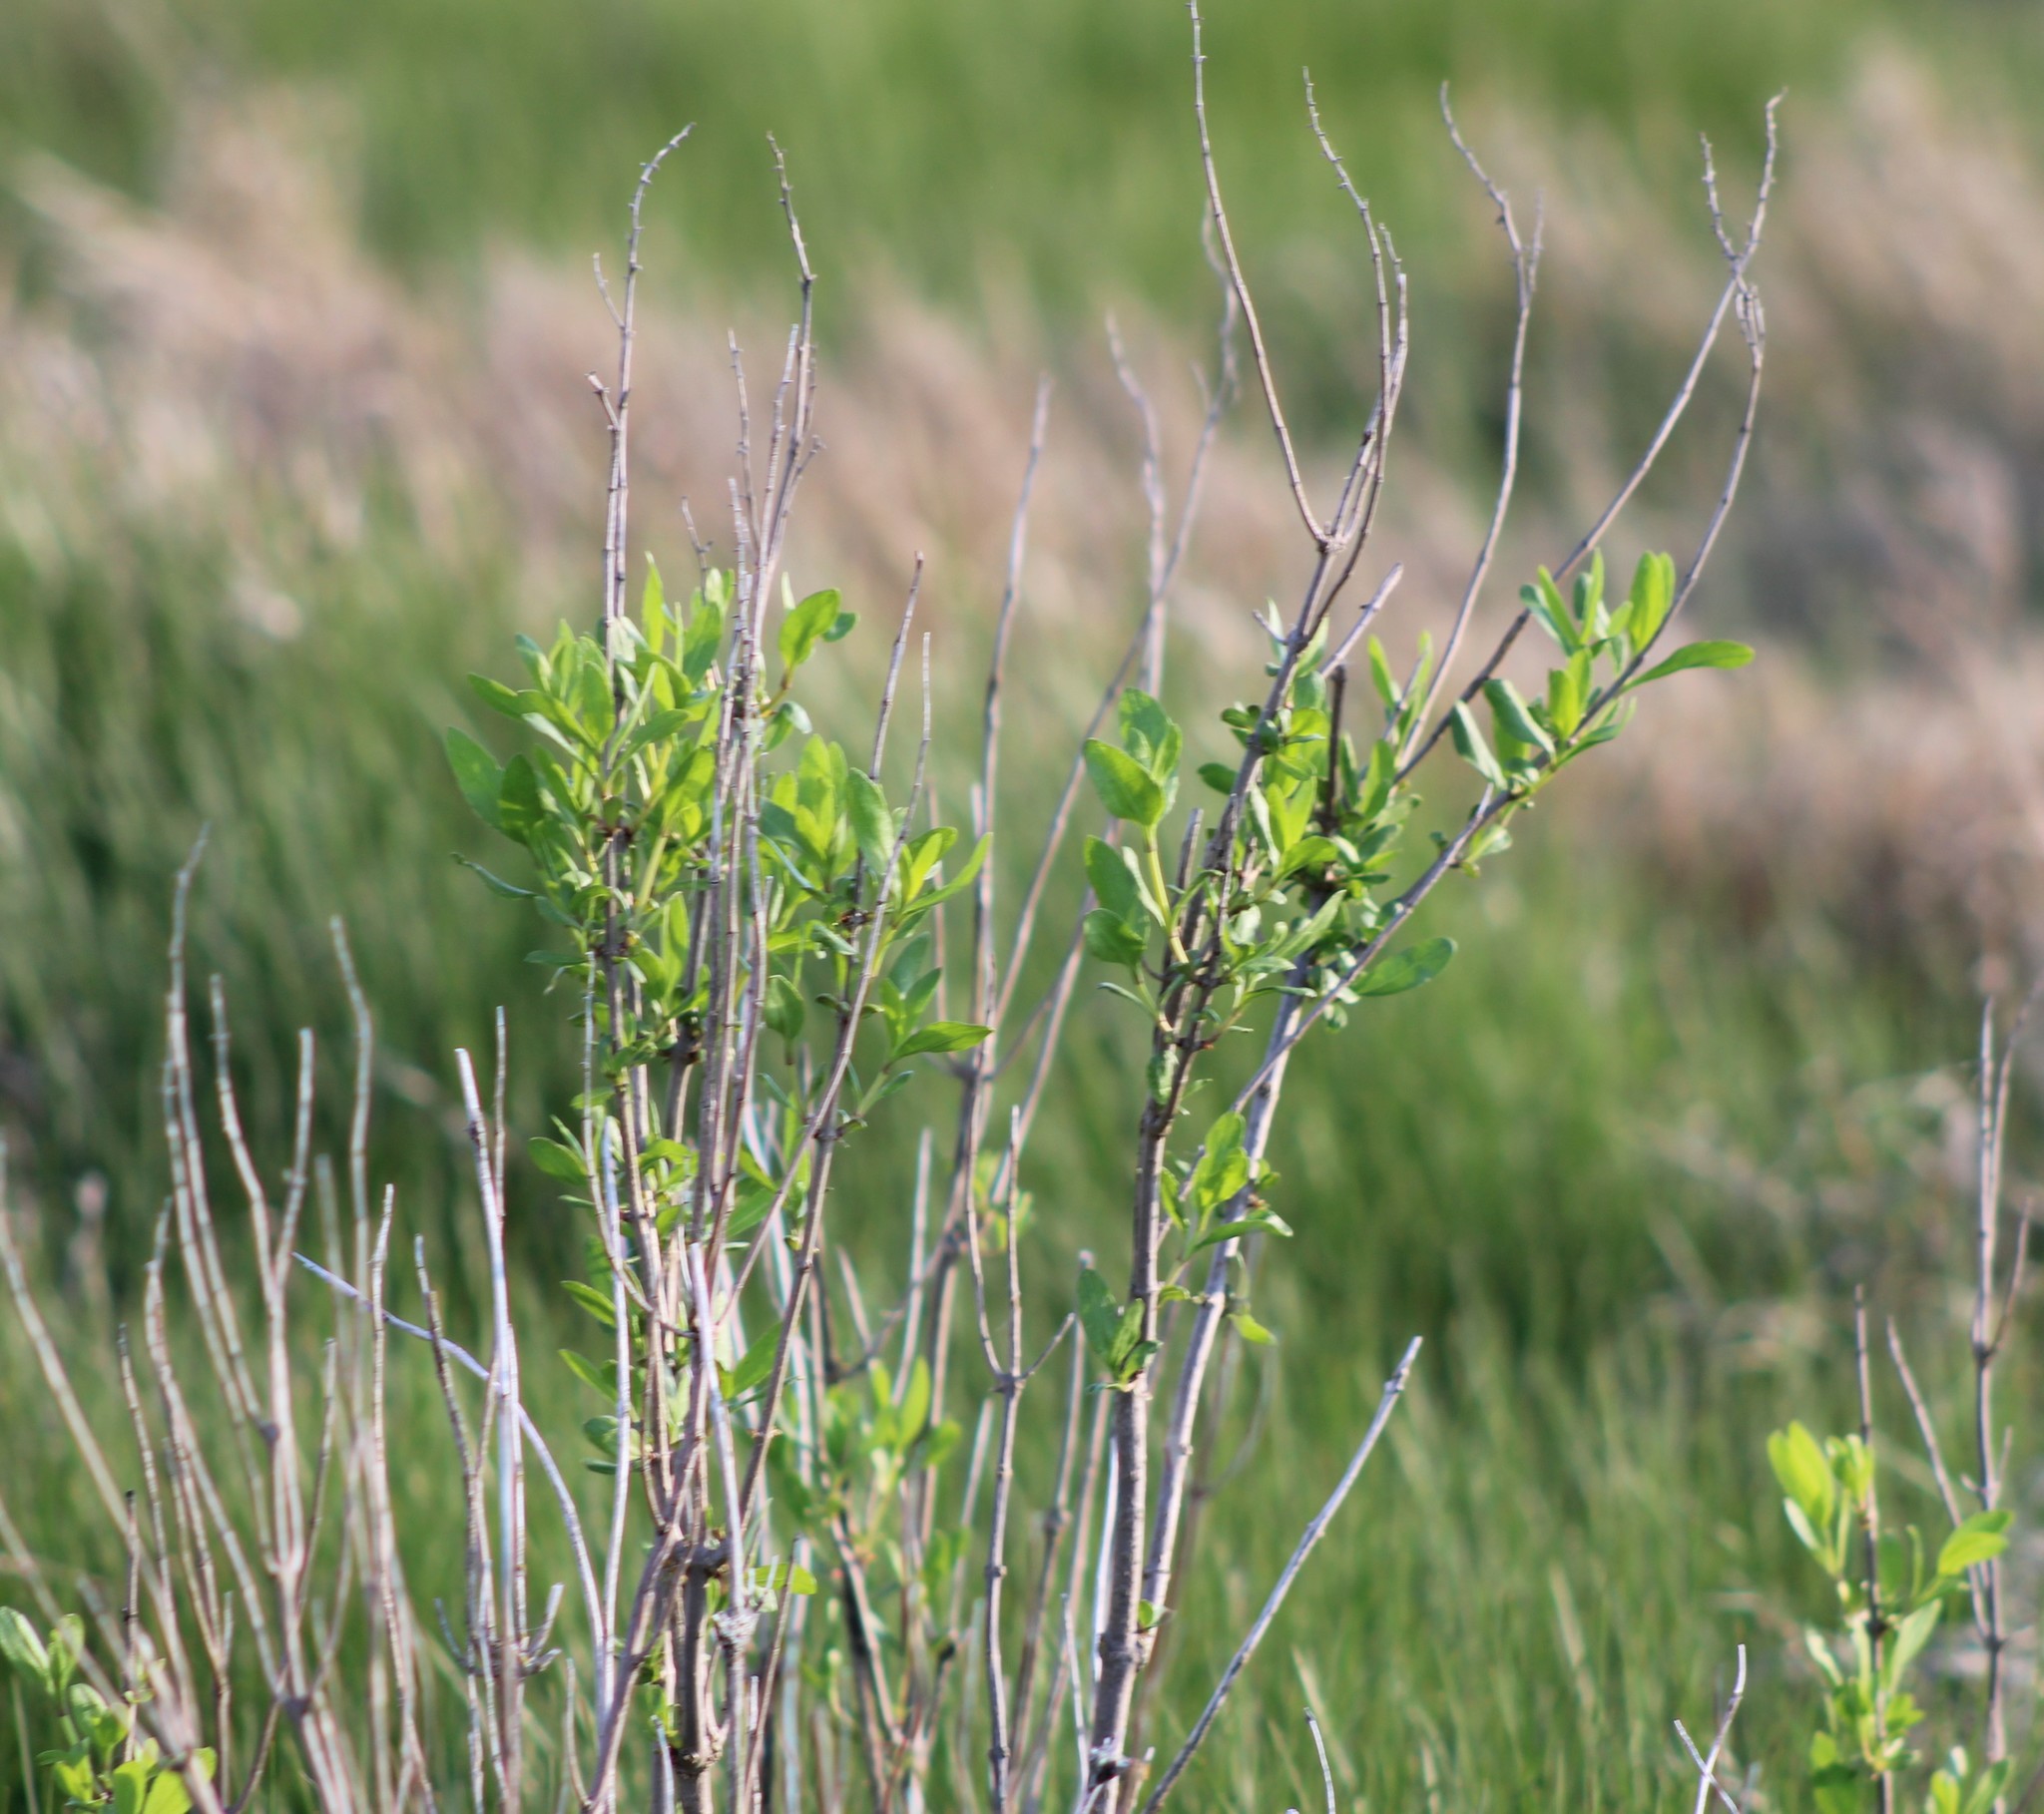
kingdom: Plantae
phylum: Tracheophyta
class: Magnoliopsida
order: Asterales
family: Asteraceae
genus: Iva
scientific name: Iva frutescens
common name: Big-leaved marsh-elder
